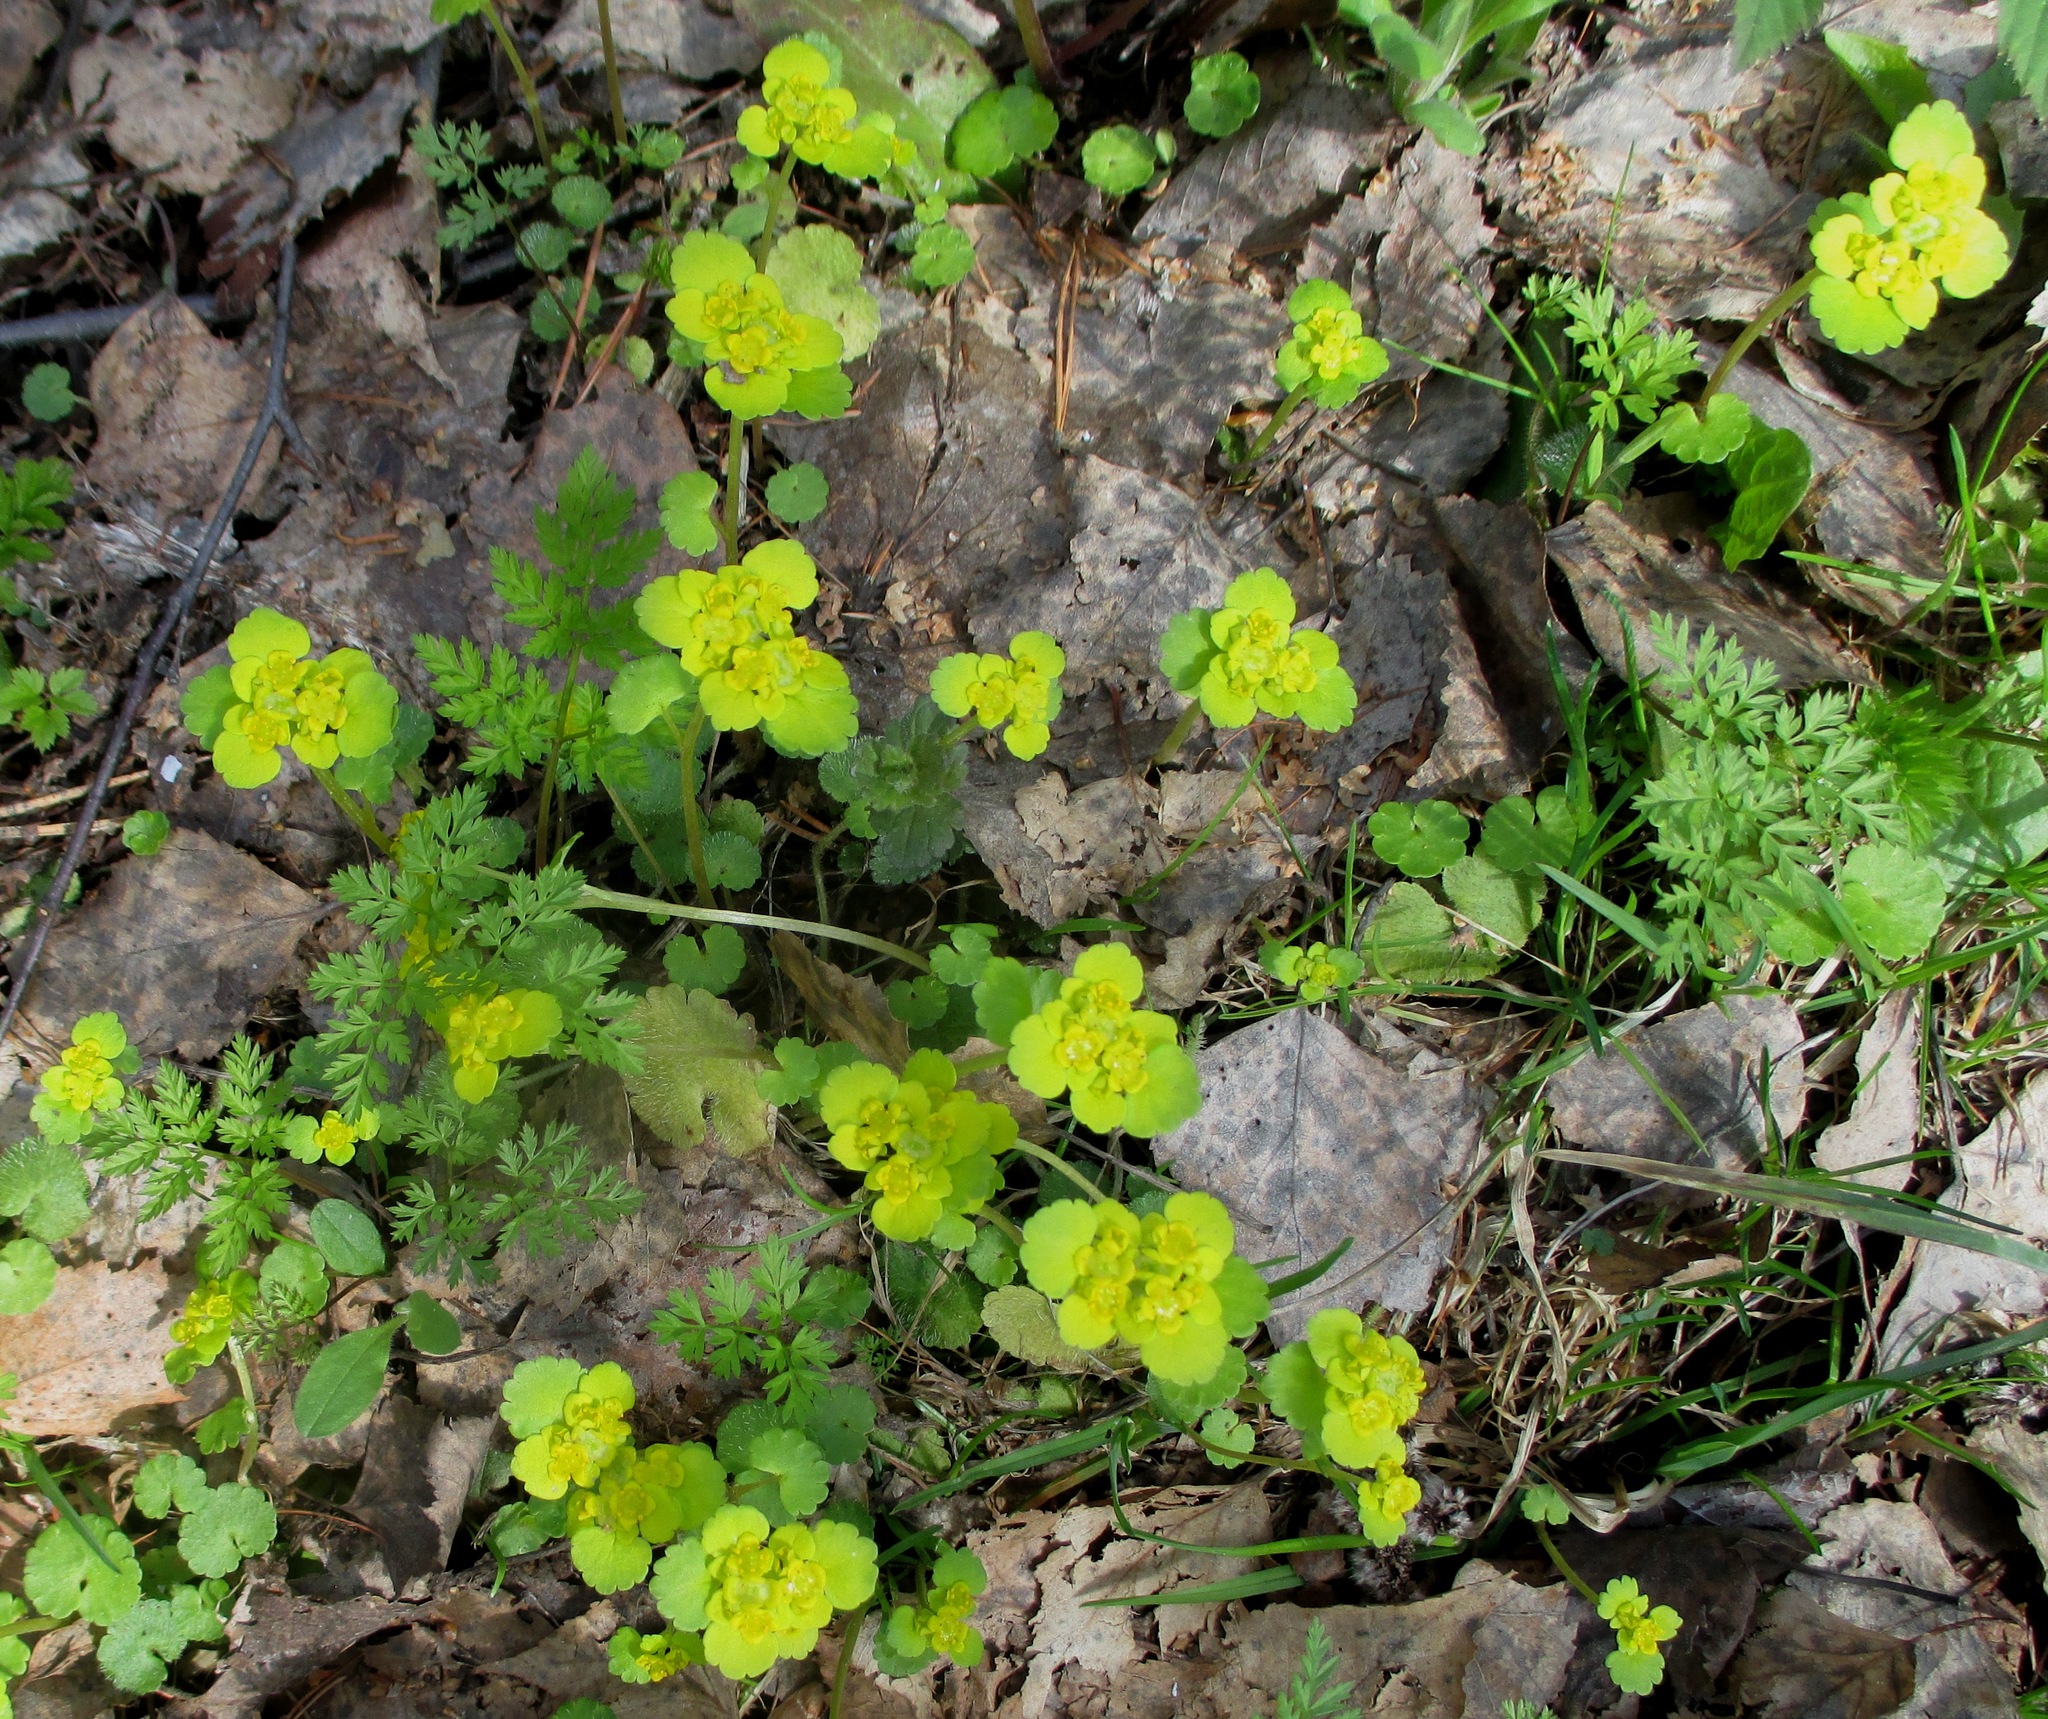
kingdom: Plantae
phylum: Tracheophyta
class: Magnoliopsida
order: Saxifragales
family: Saxifragaceae
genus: Chrysosplenium
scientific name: Chrysosplenium alternifolium
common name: Alternate-leaved golden-saxifrage
